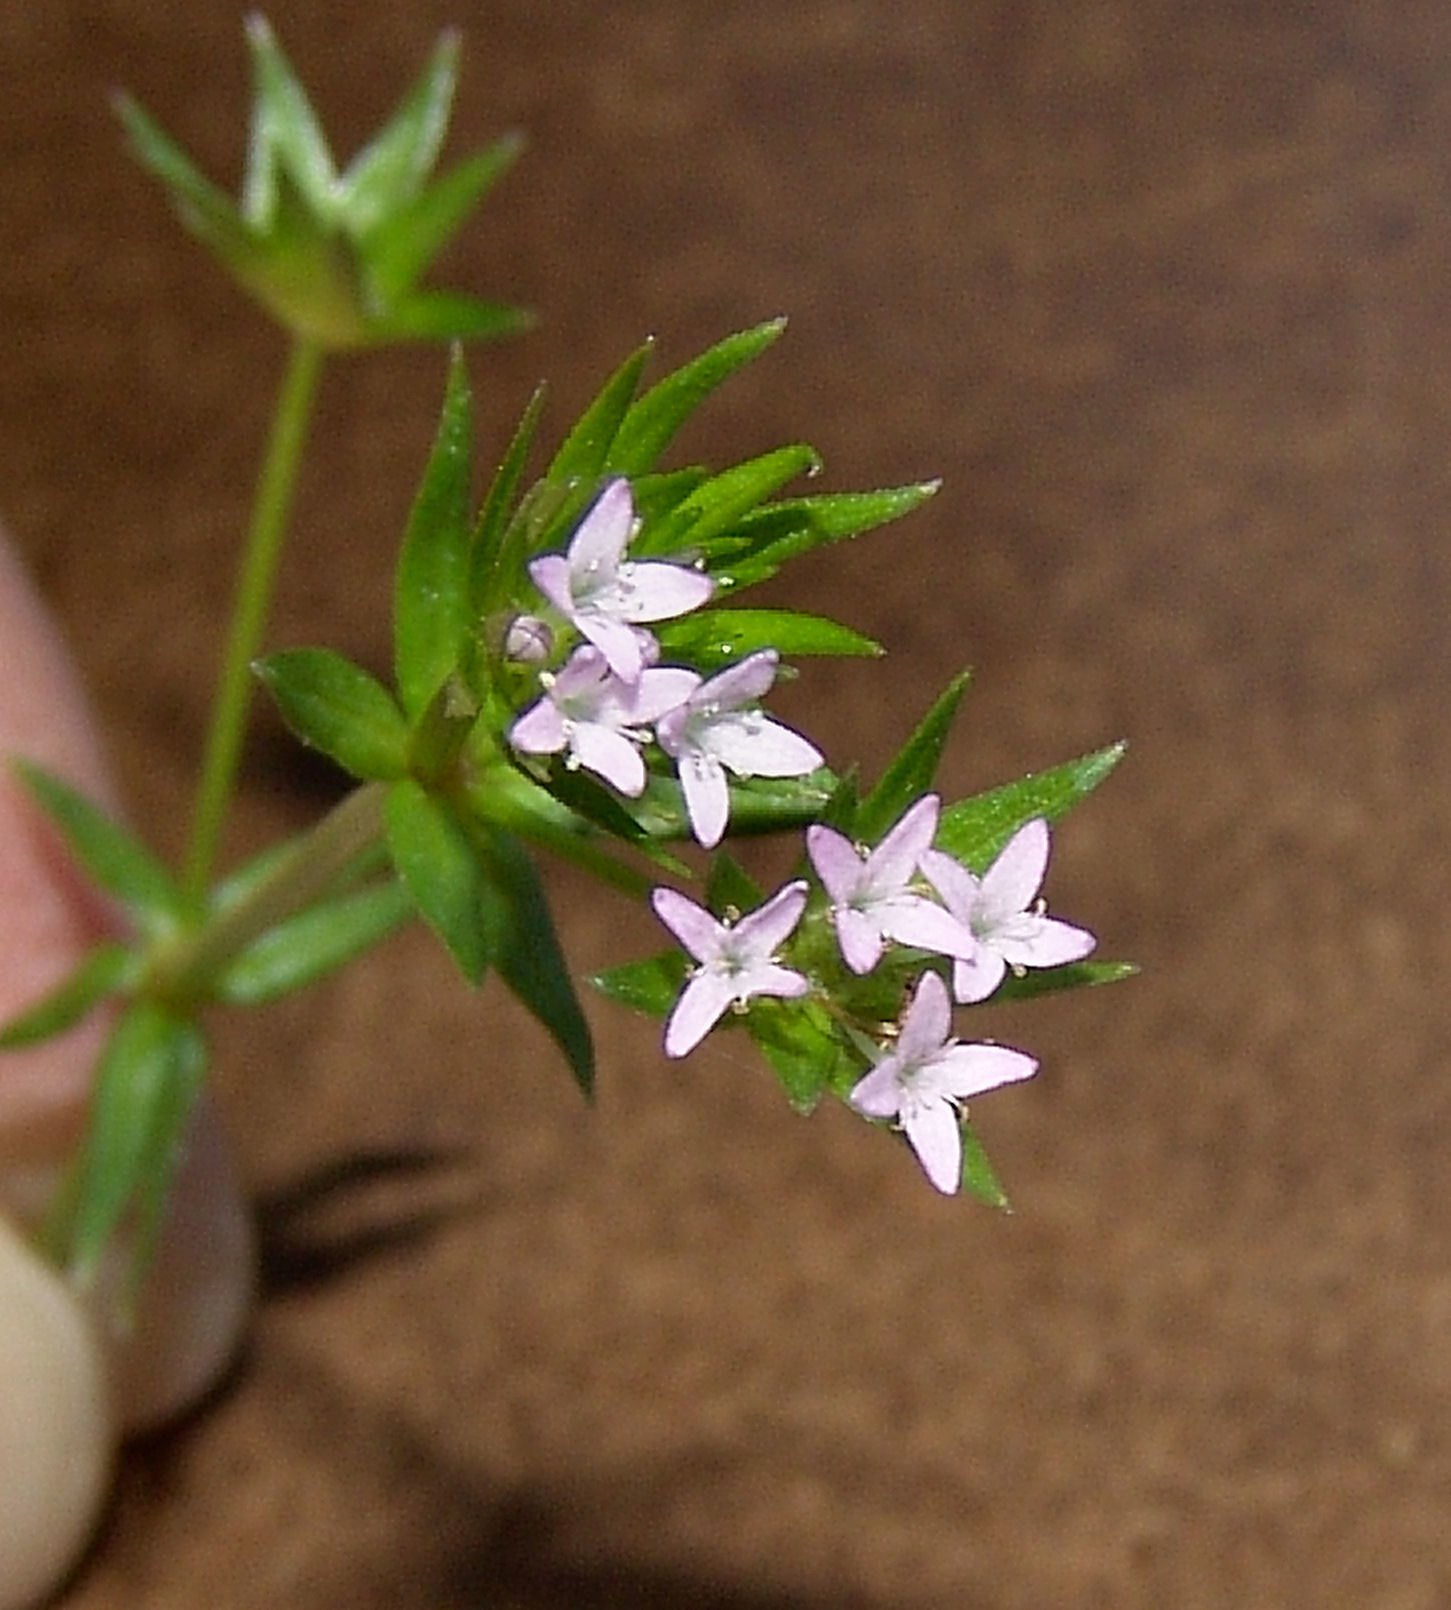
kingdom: Plantae
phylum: Tracheophyta
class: Magnoliopsida
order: Gentianales
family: Rubiaceae
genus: Sherardia
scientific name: Sherardia arvensis
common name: Field madder
